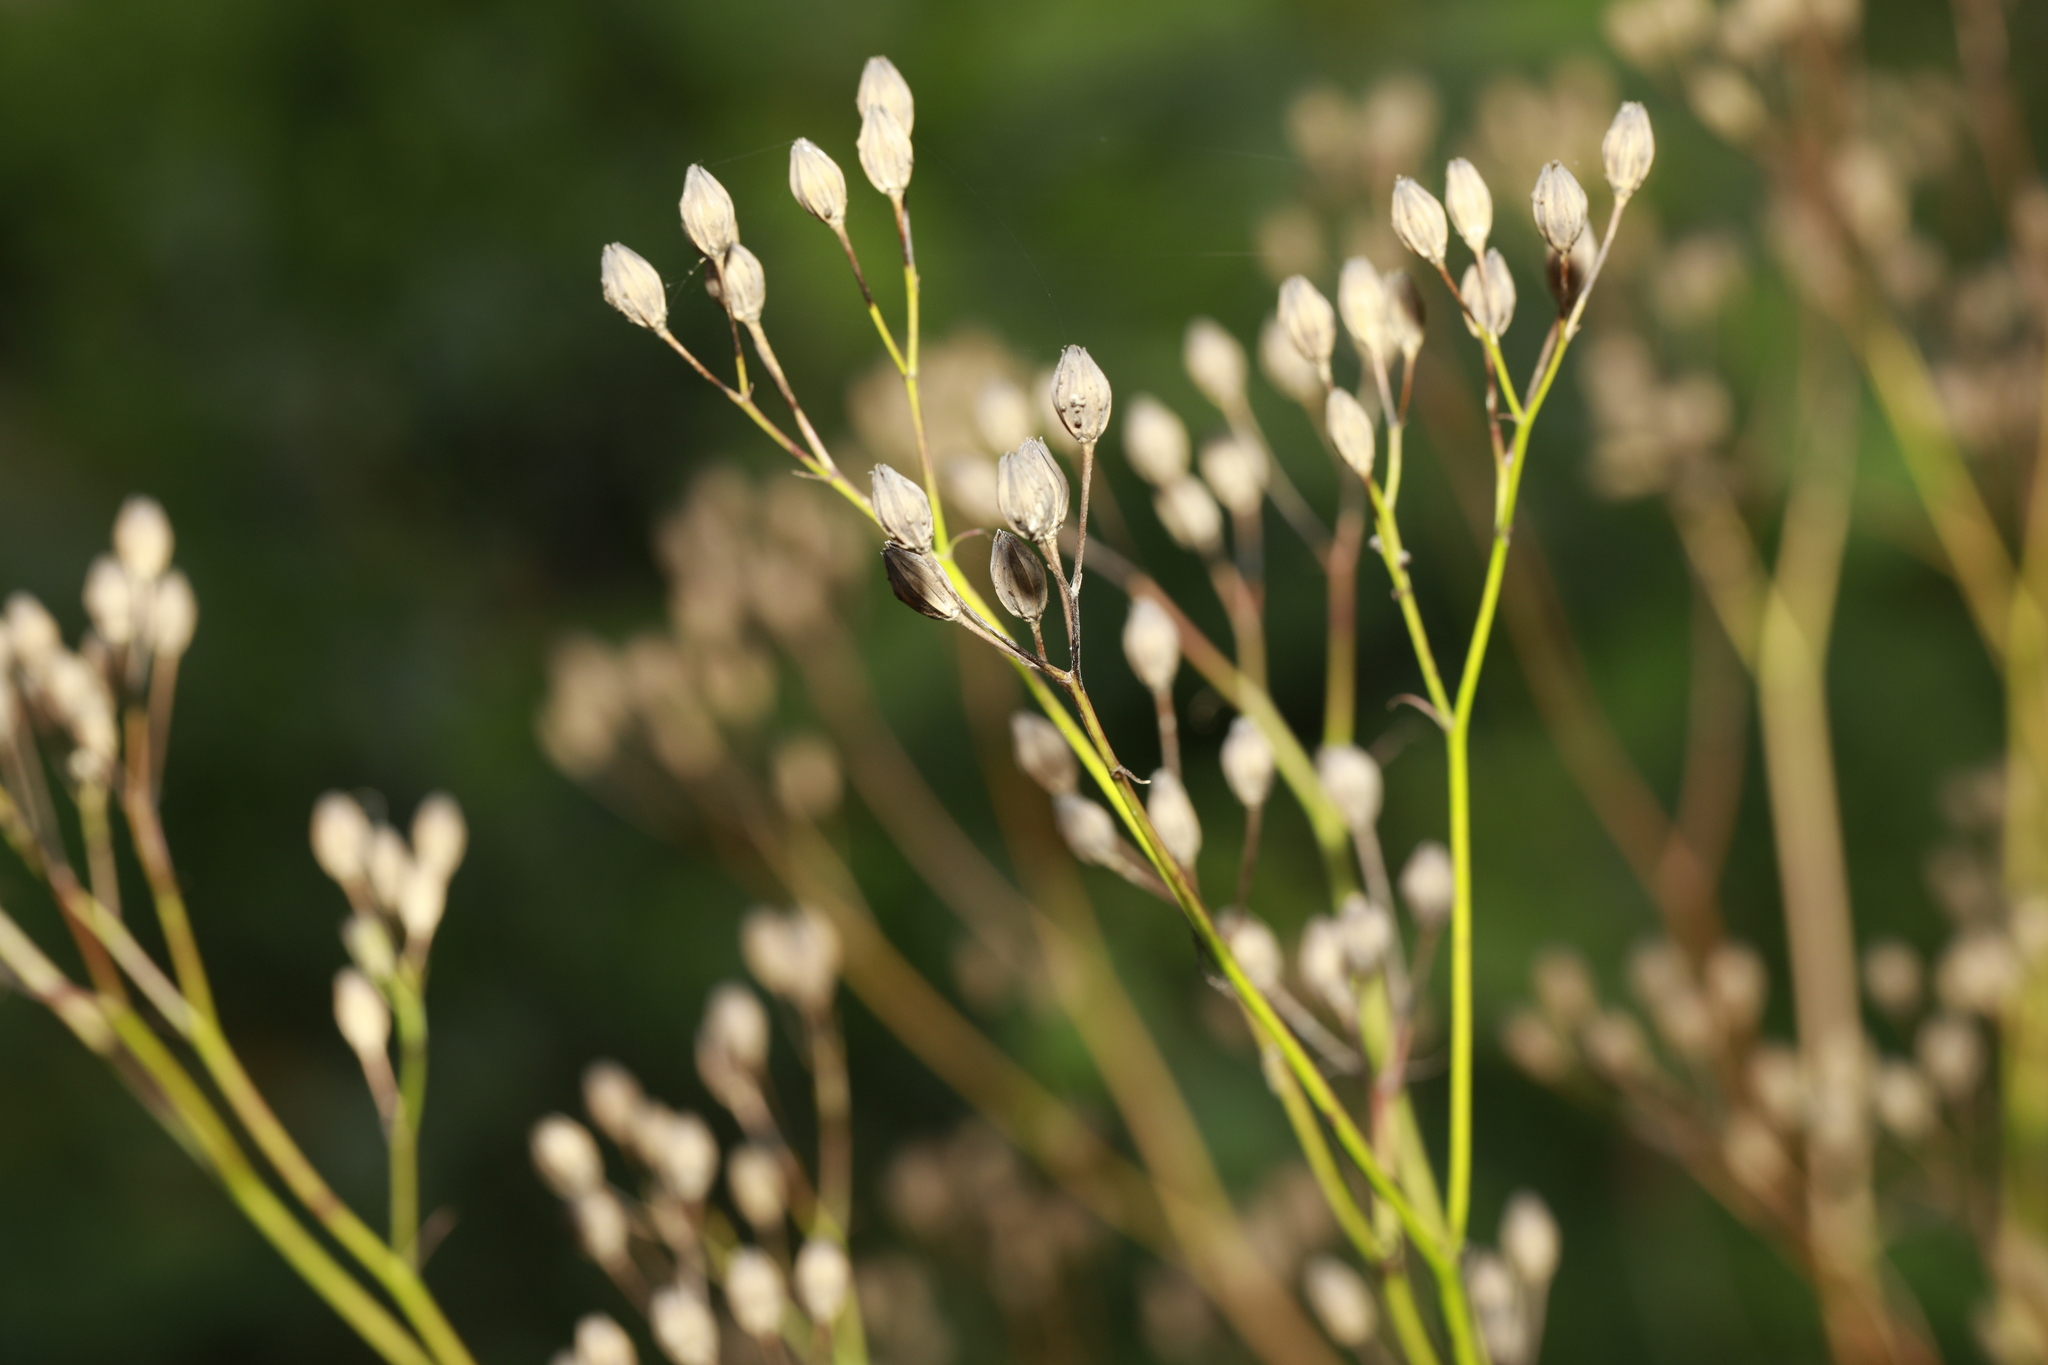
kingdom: Plantae
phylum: Tracheophyta
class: Magnoliopsida
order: Asterales
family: Asteraceae
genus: Lapsana
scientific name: Lapsana communis
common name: Nipplewort
